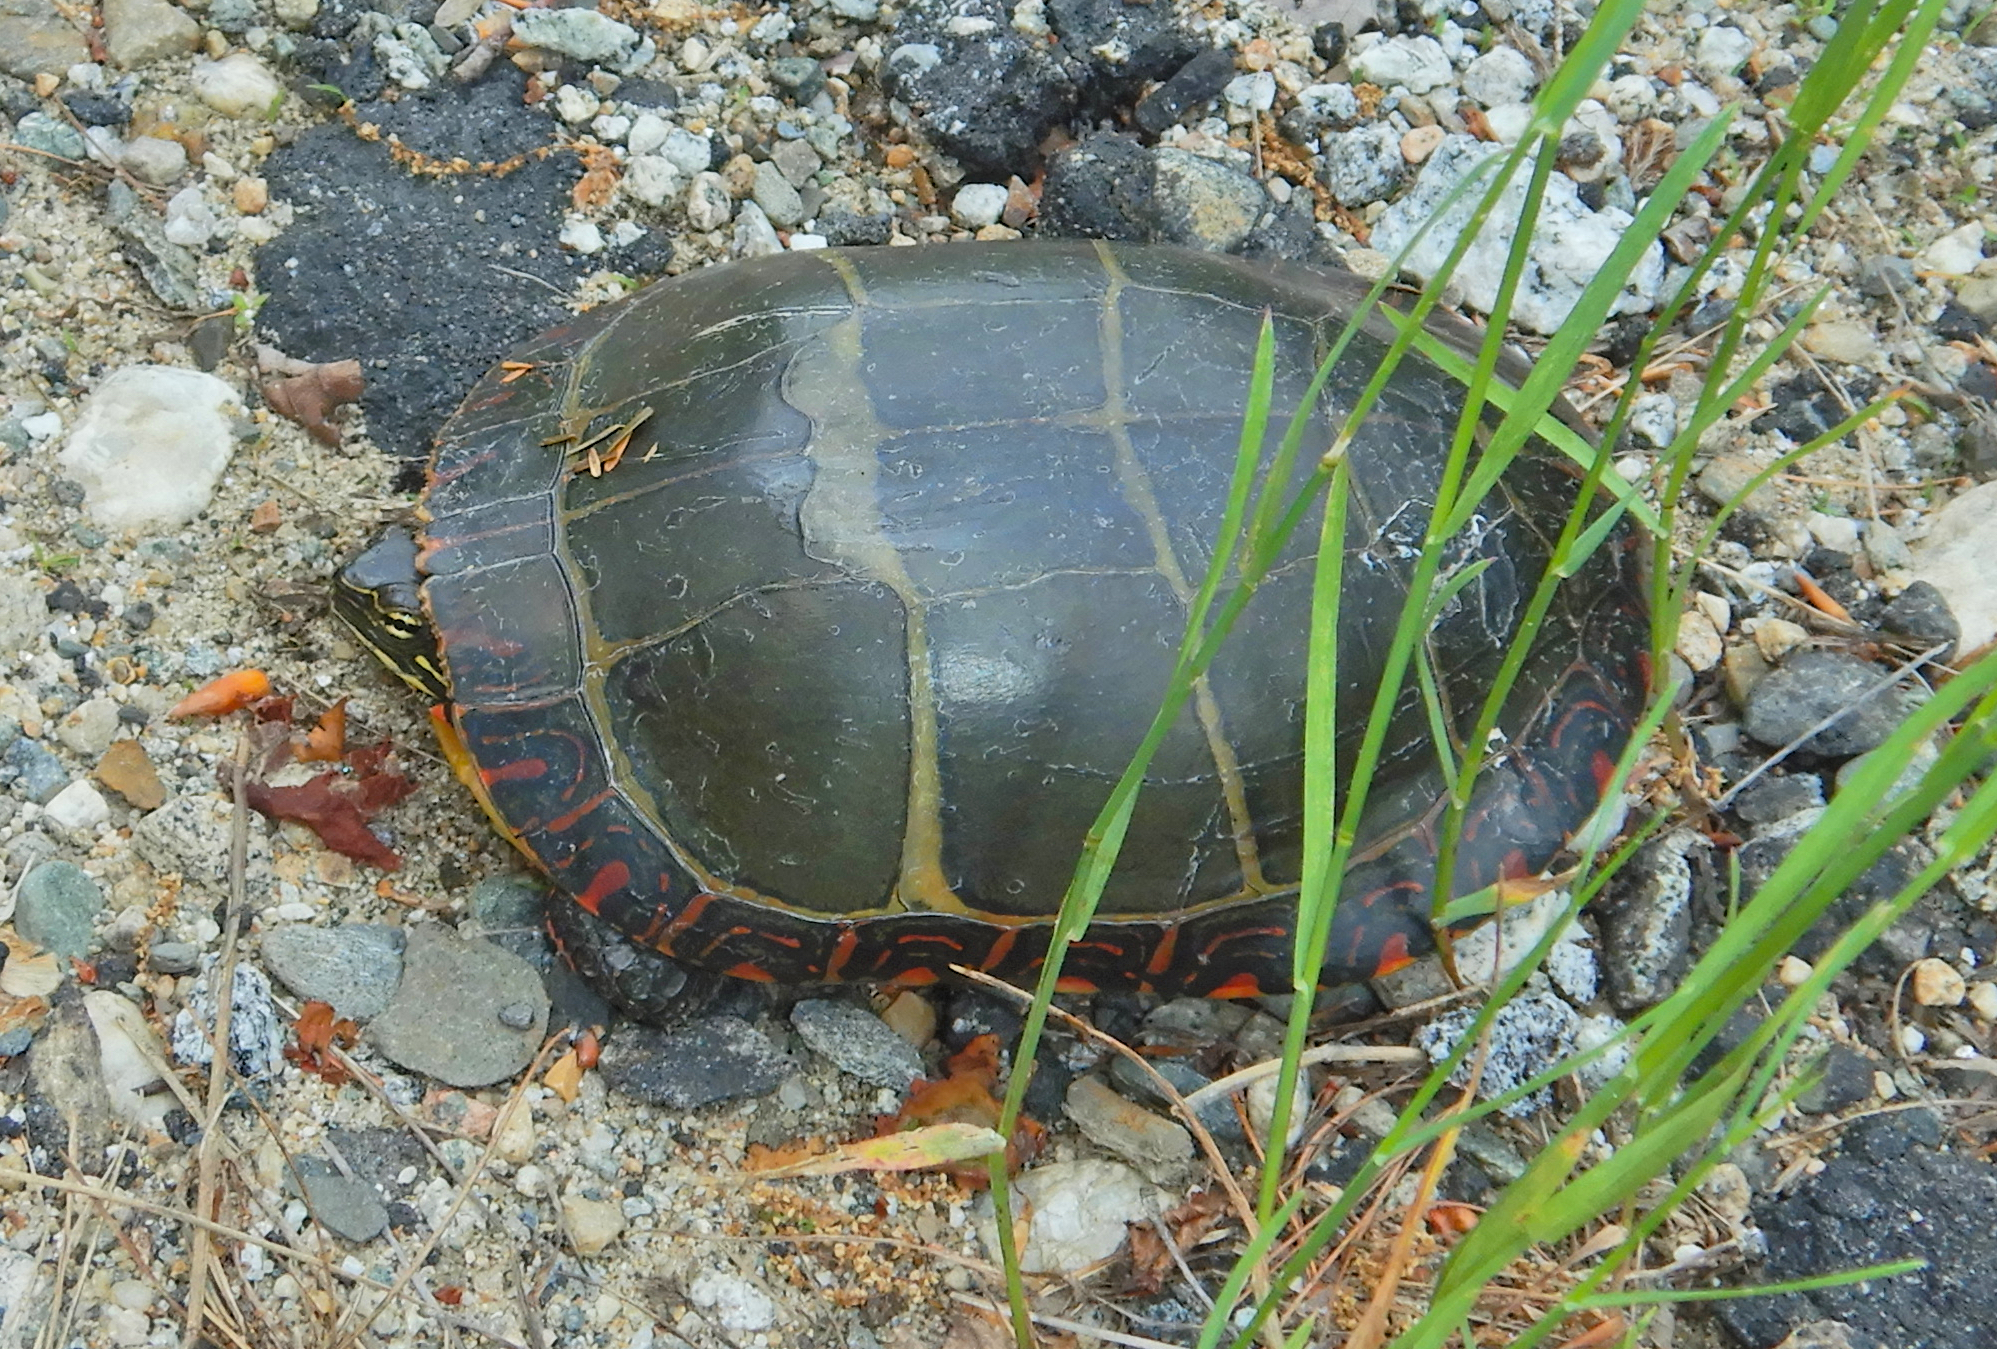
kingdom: Animalia
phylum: Chordata
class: Testudines
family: Emydidae
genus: Chrysemys
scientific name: Chrysemys picta
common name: Painted turtle
